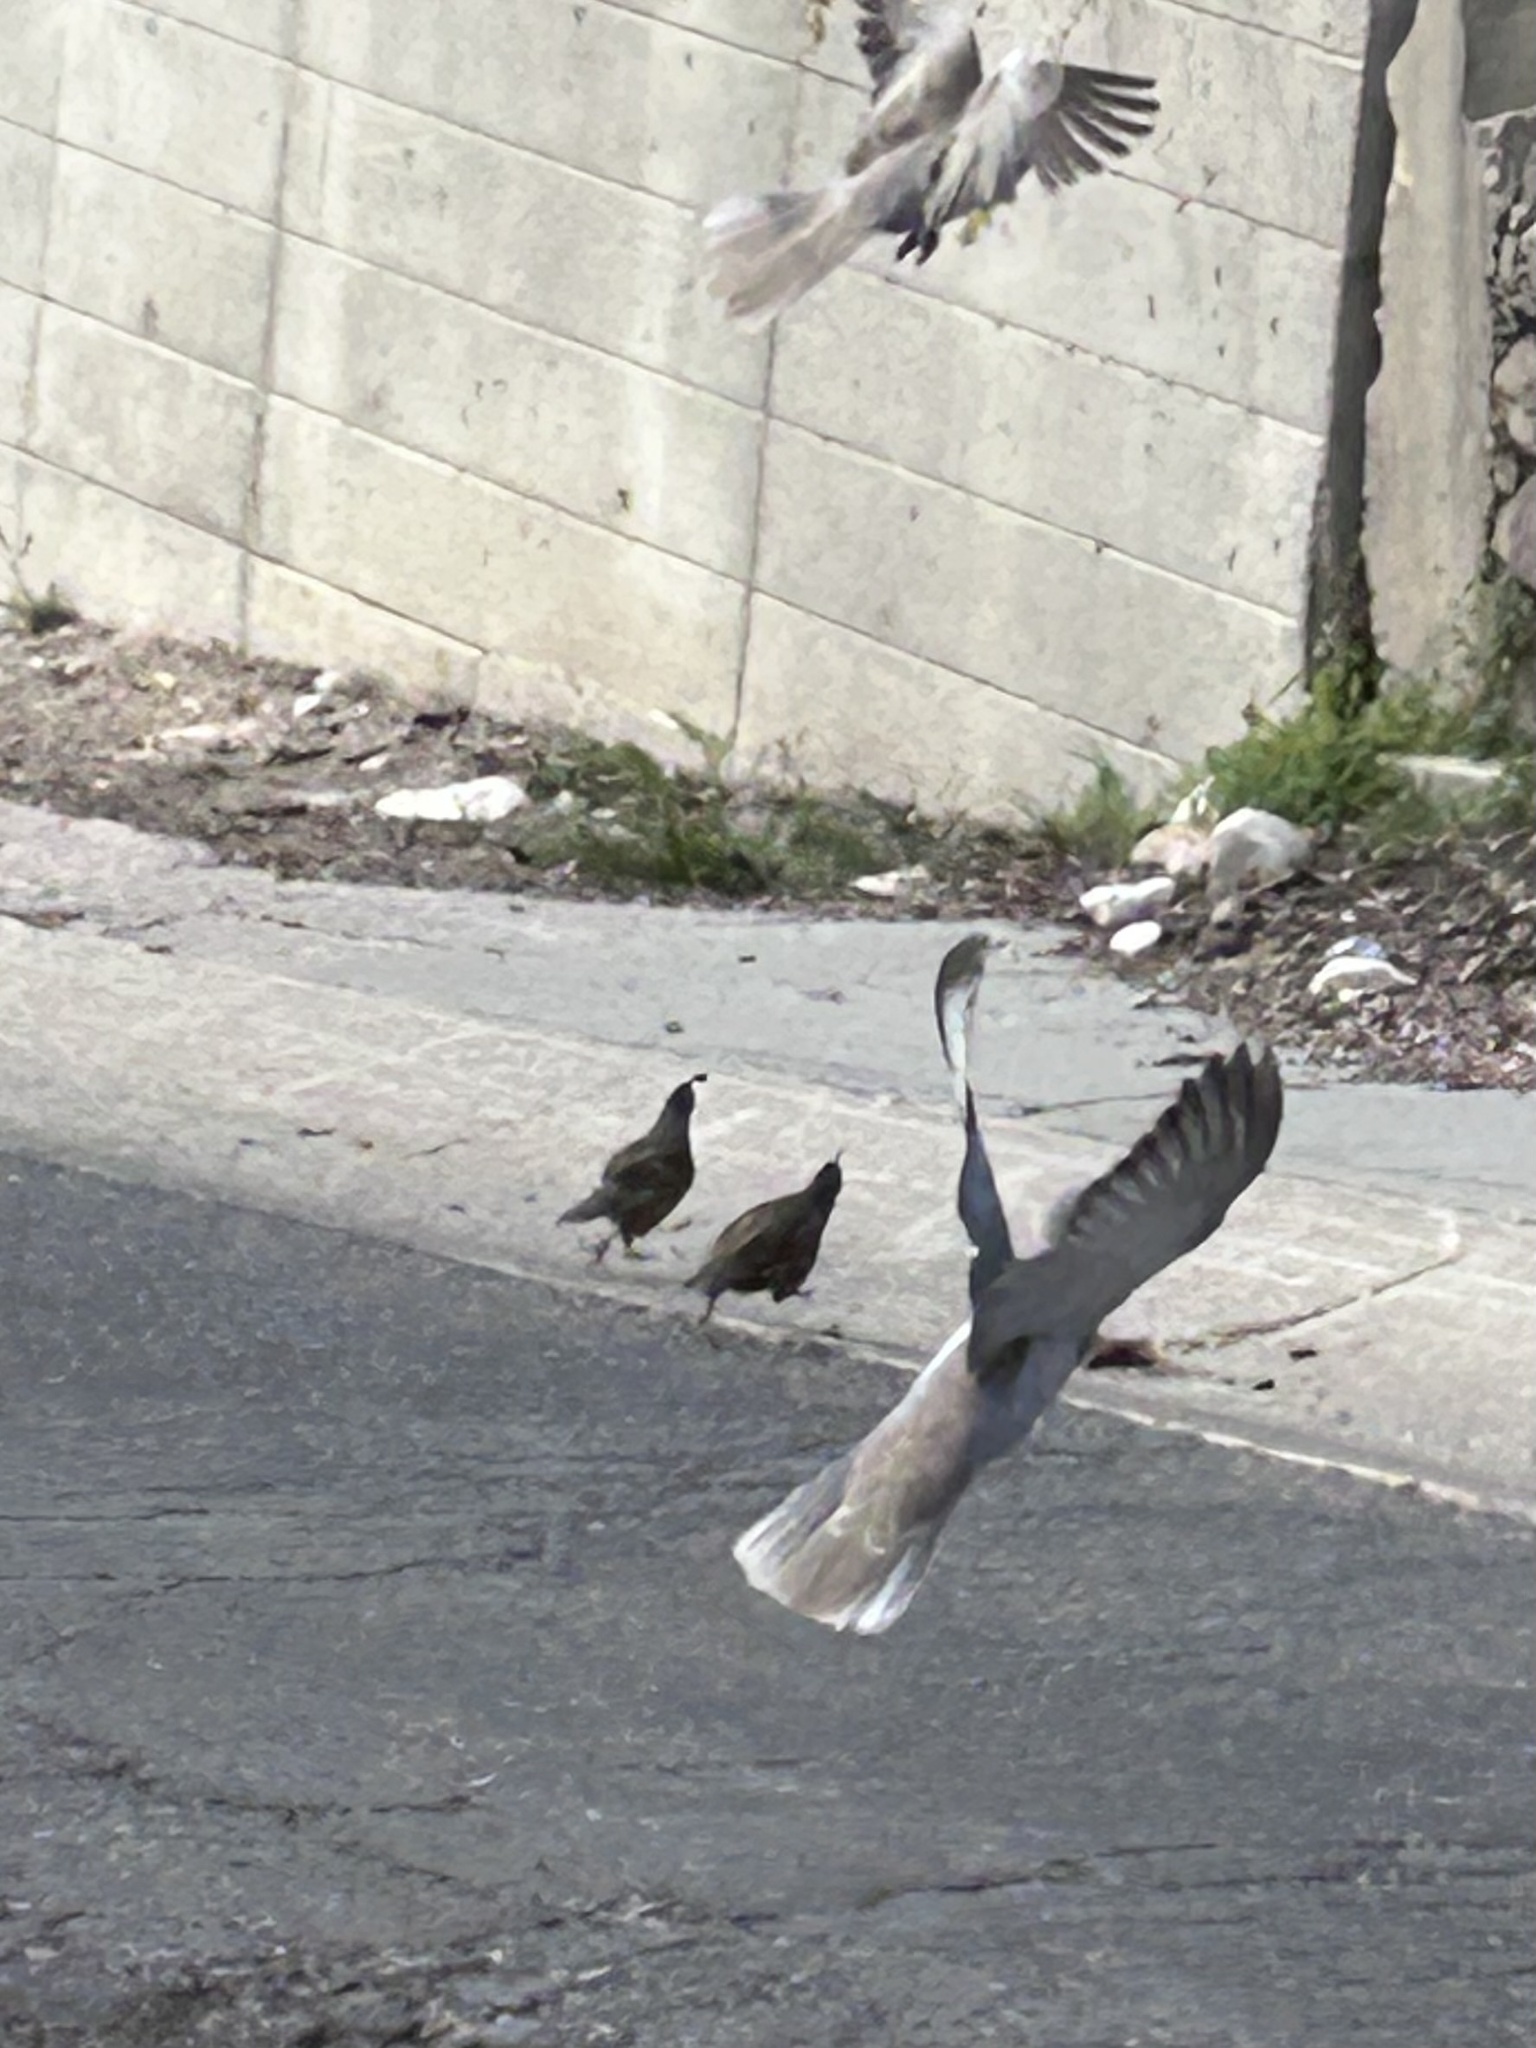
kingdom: Animalia
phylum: Chordata
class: Aves
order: Columbiformes
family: Columbidae
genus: Streptopelia
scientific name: Streptopelia decaocto
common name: Eurasian collared dove
